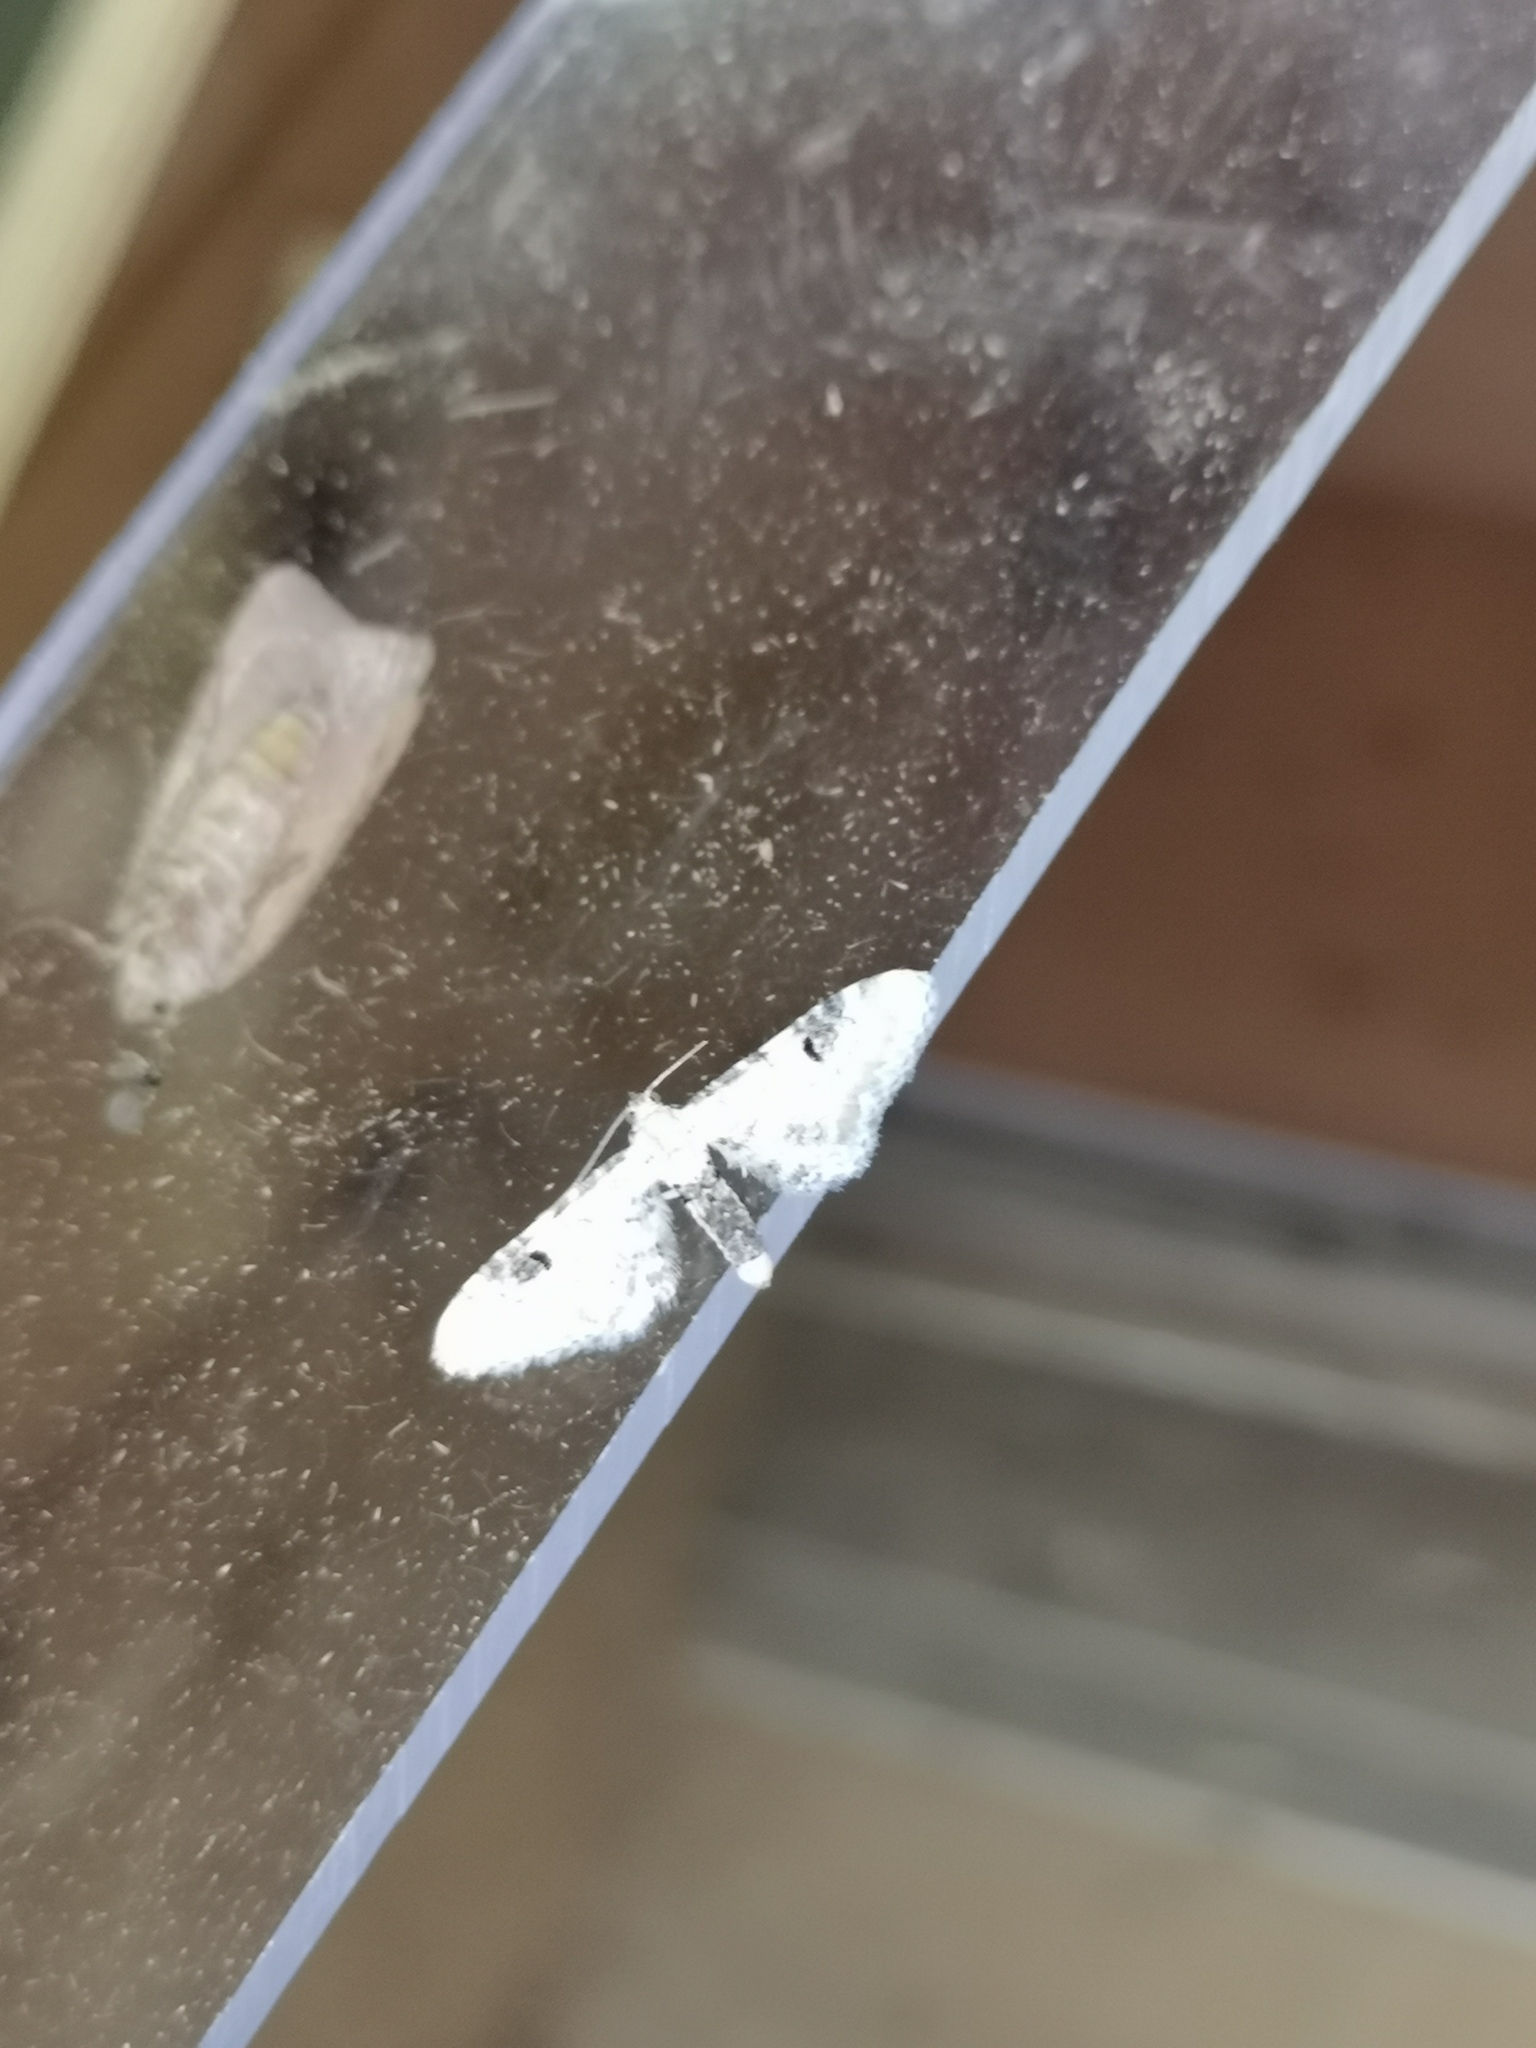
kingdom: Animalia
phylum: Arthropoda
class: Insecta
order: Lepidoptera
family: Geometridae
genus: Eupithecia
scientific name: Eupithecia centaureata
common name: Lime-speck pug
